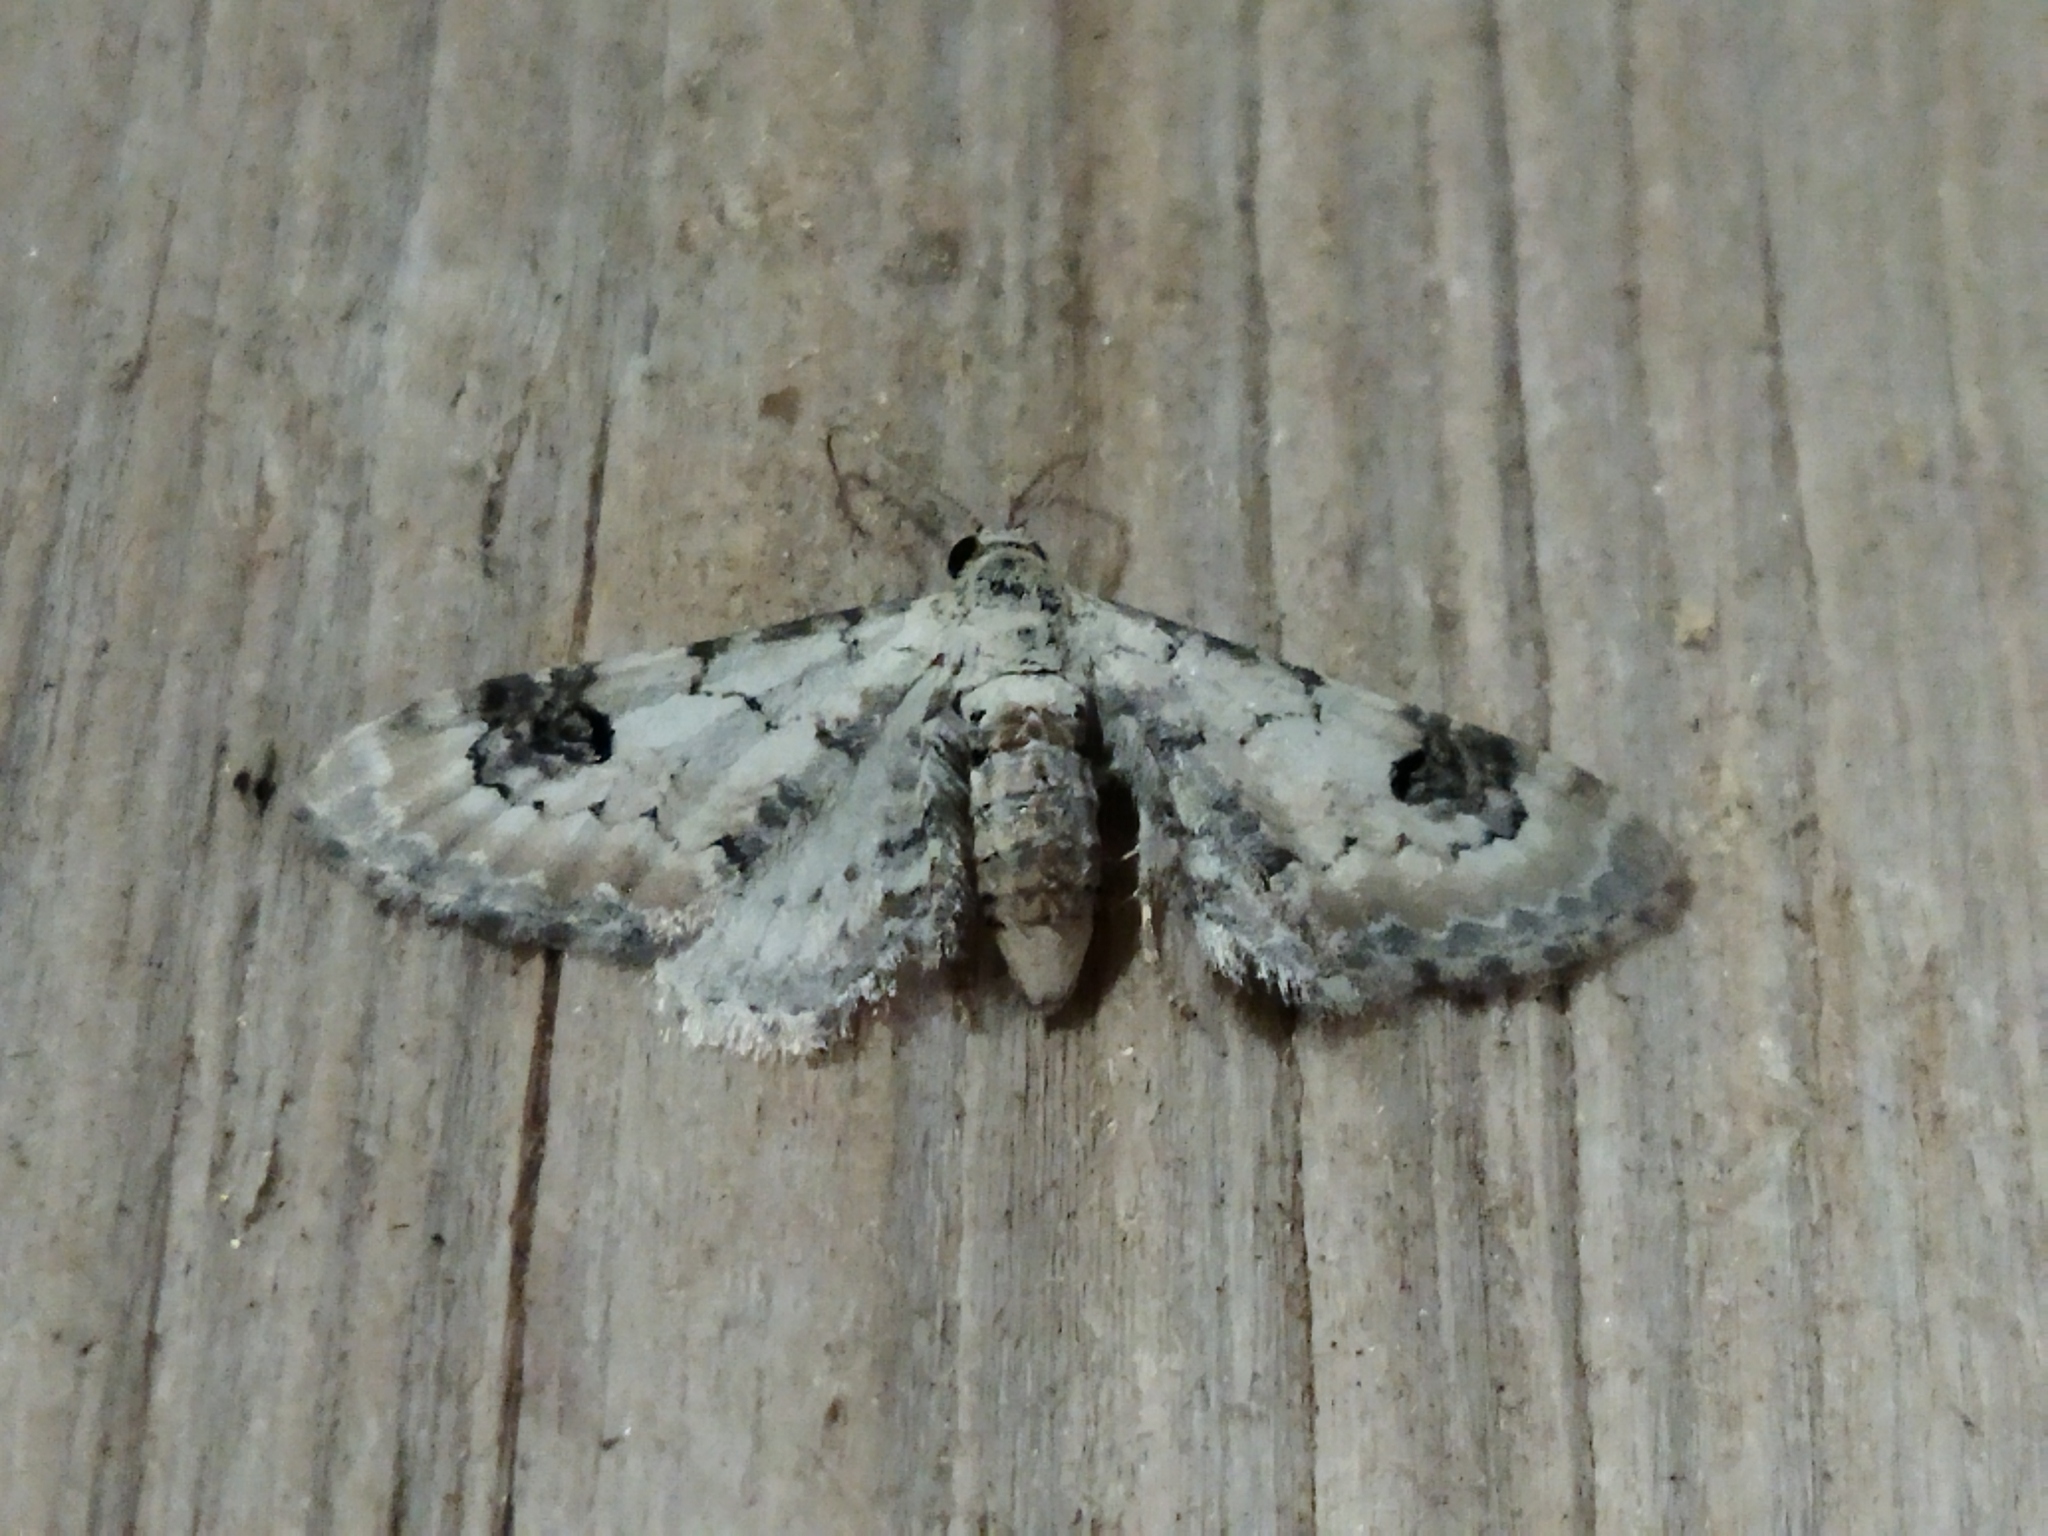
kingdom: Animalia
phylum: Arthropoda
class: Insecta
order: Lepidoptera
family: Geometridae
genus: Eupithecia
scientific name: Eupithecia centaureata
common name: Lime-speck pug
